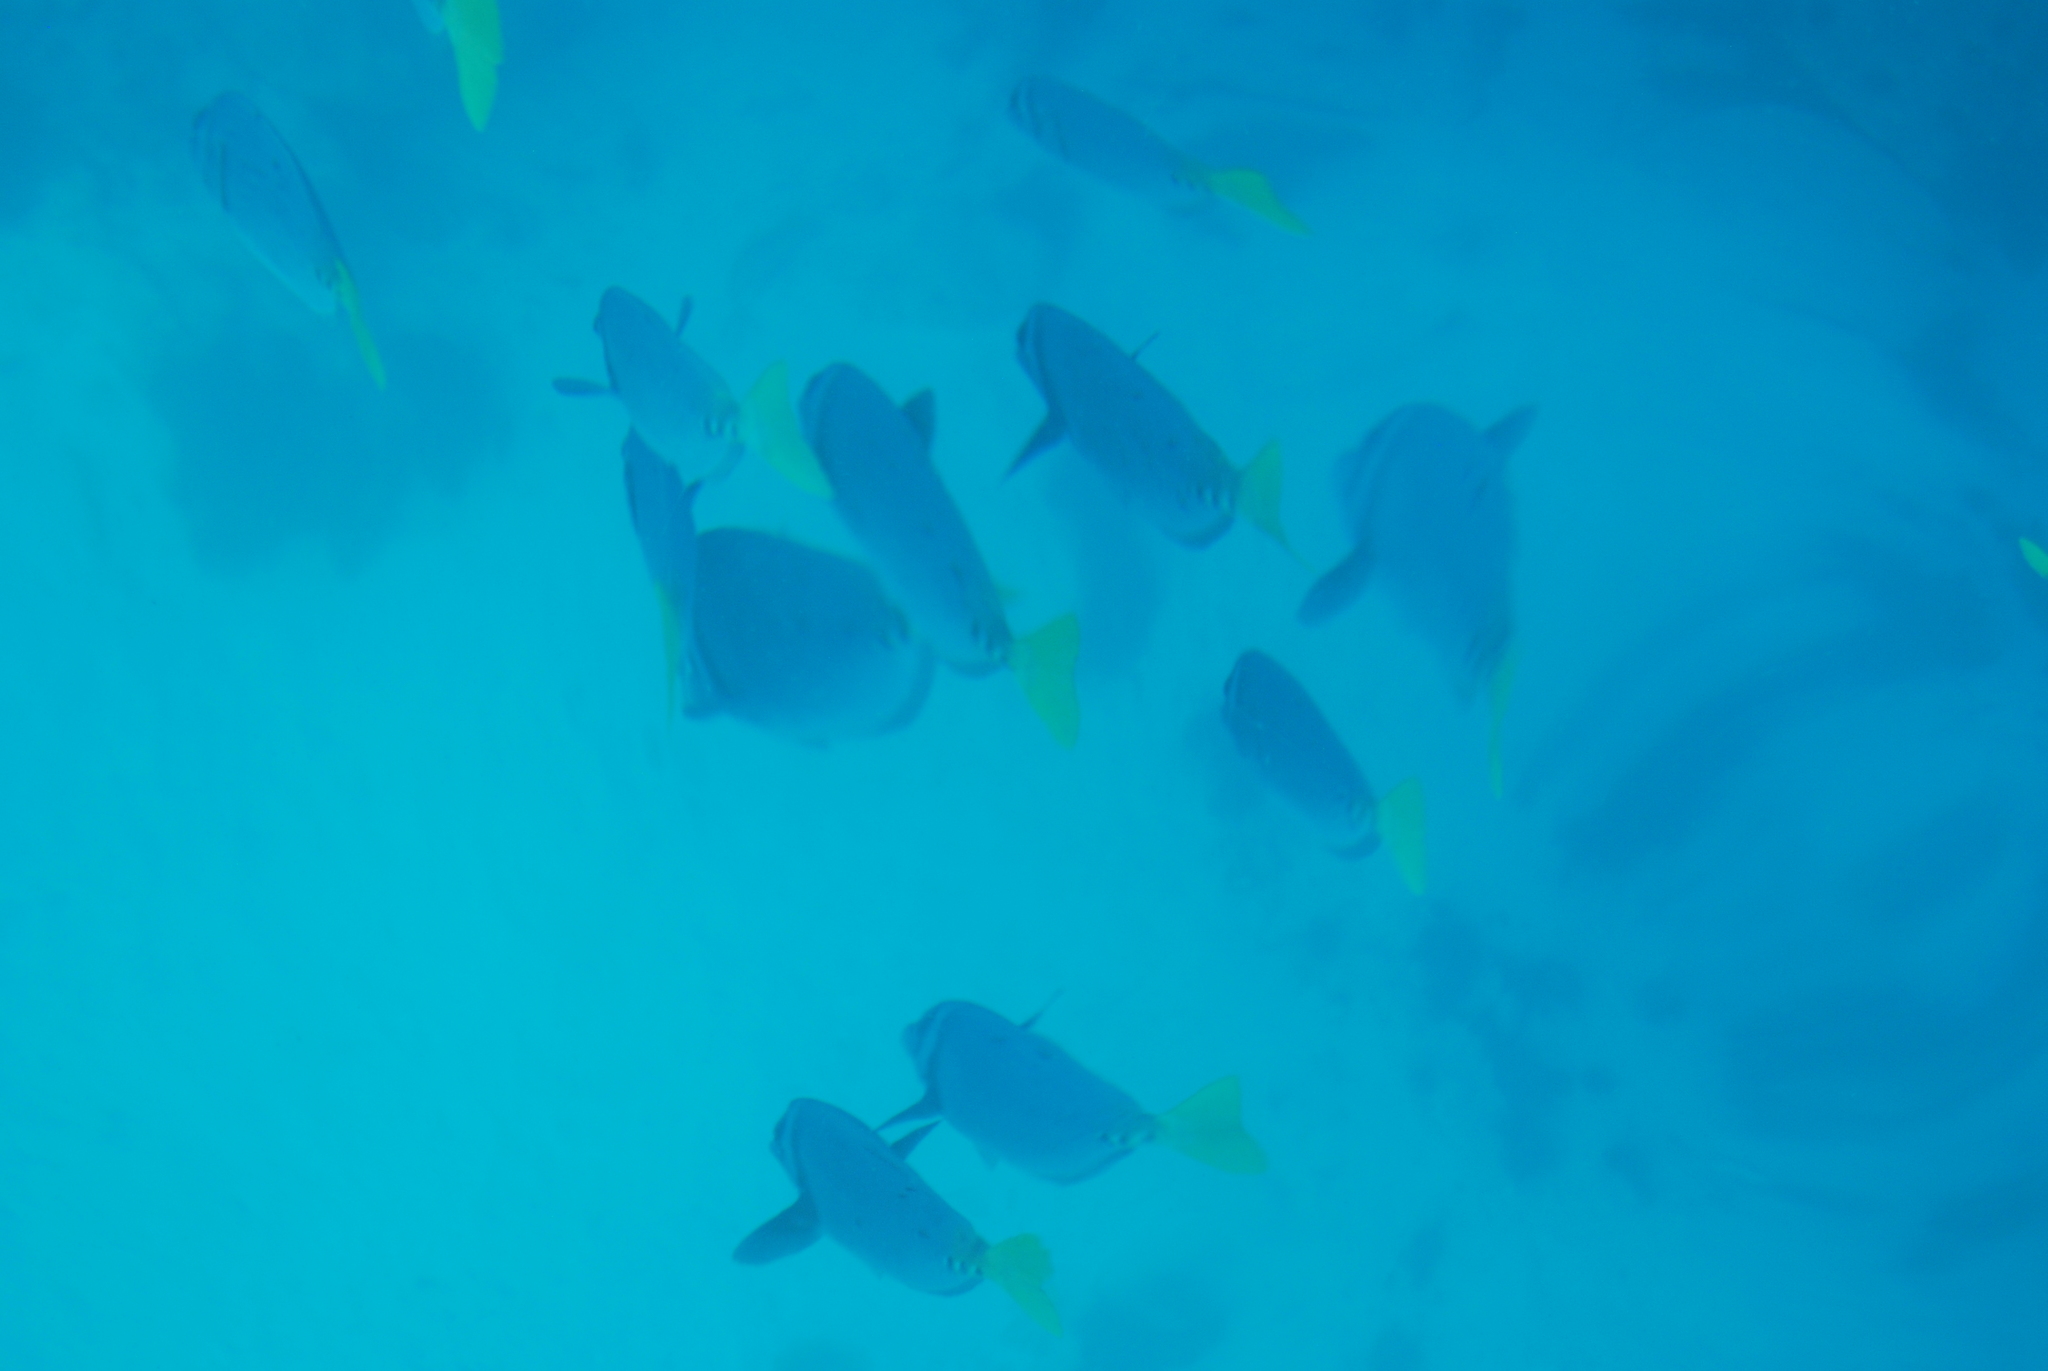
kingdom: Animalia
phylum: Chordata
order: Perciformes
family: Acanthuridae
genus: Prionurus
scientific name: Prionurus laticlavius
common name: Razor surgeonfish
